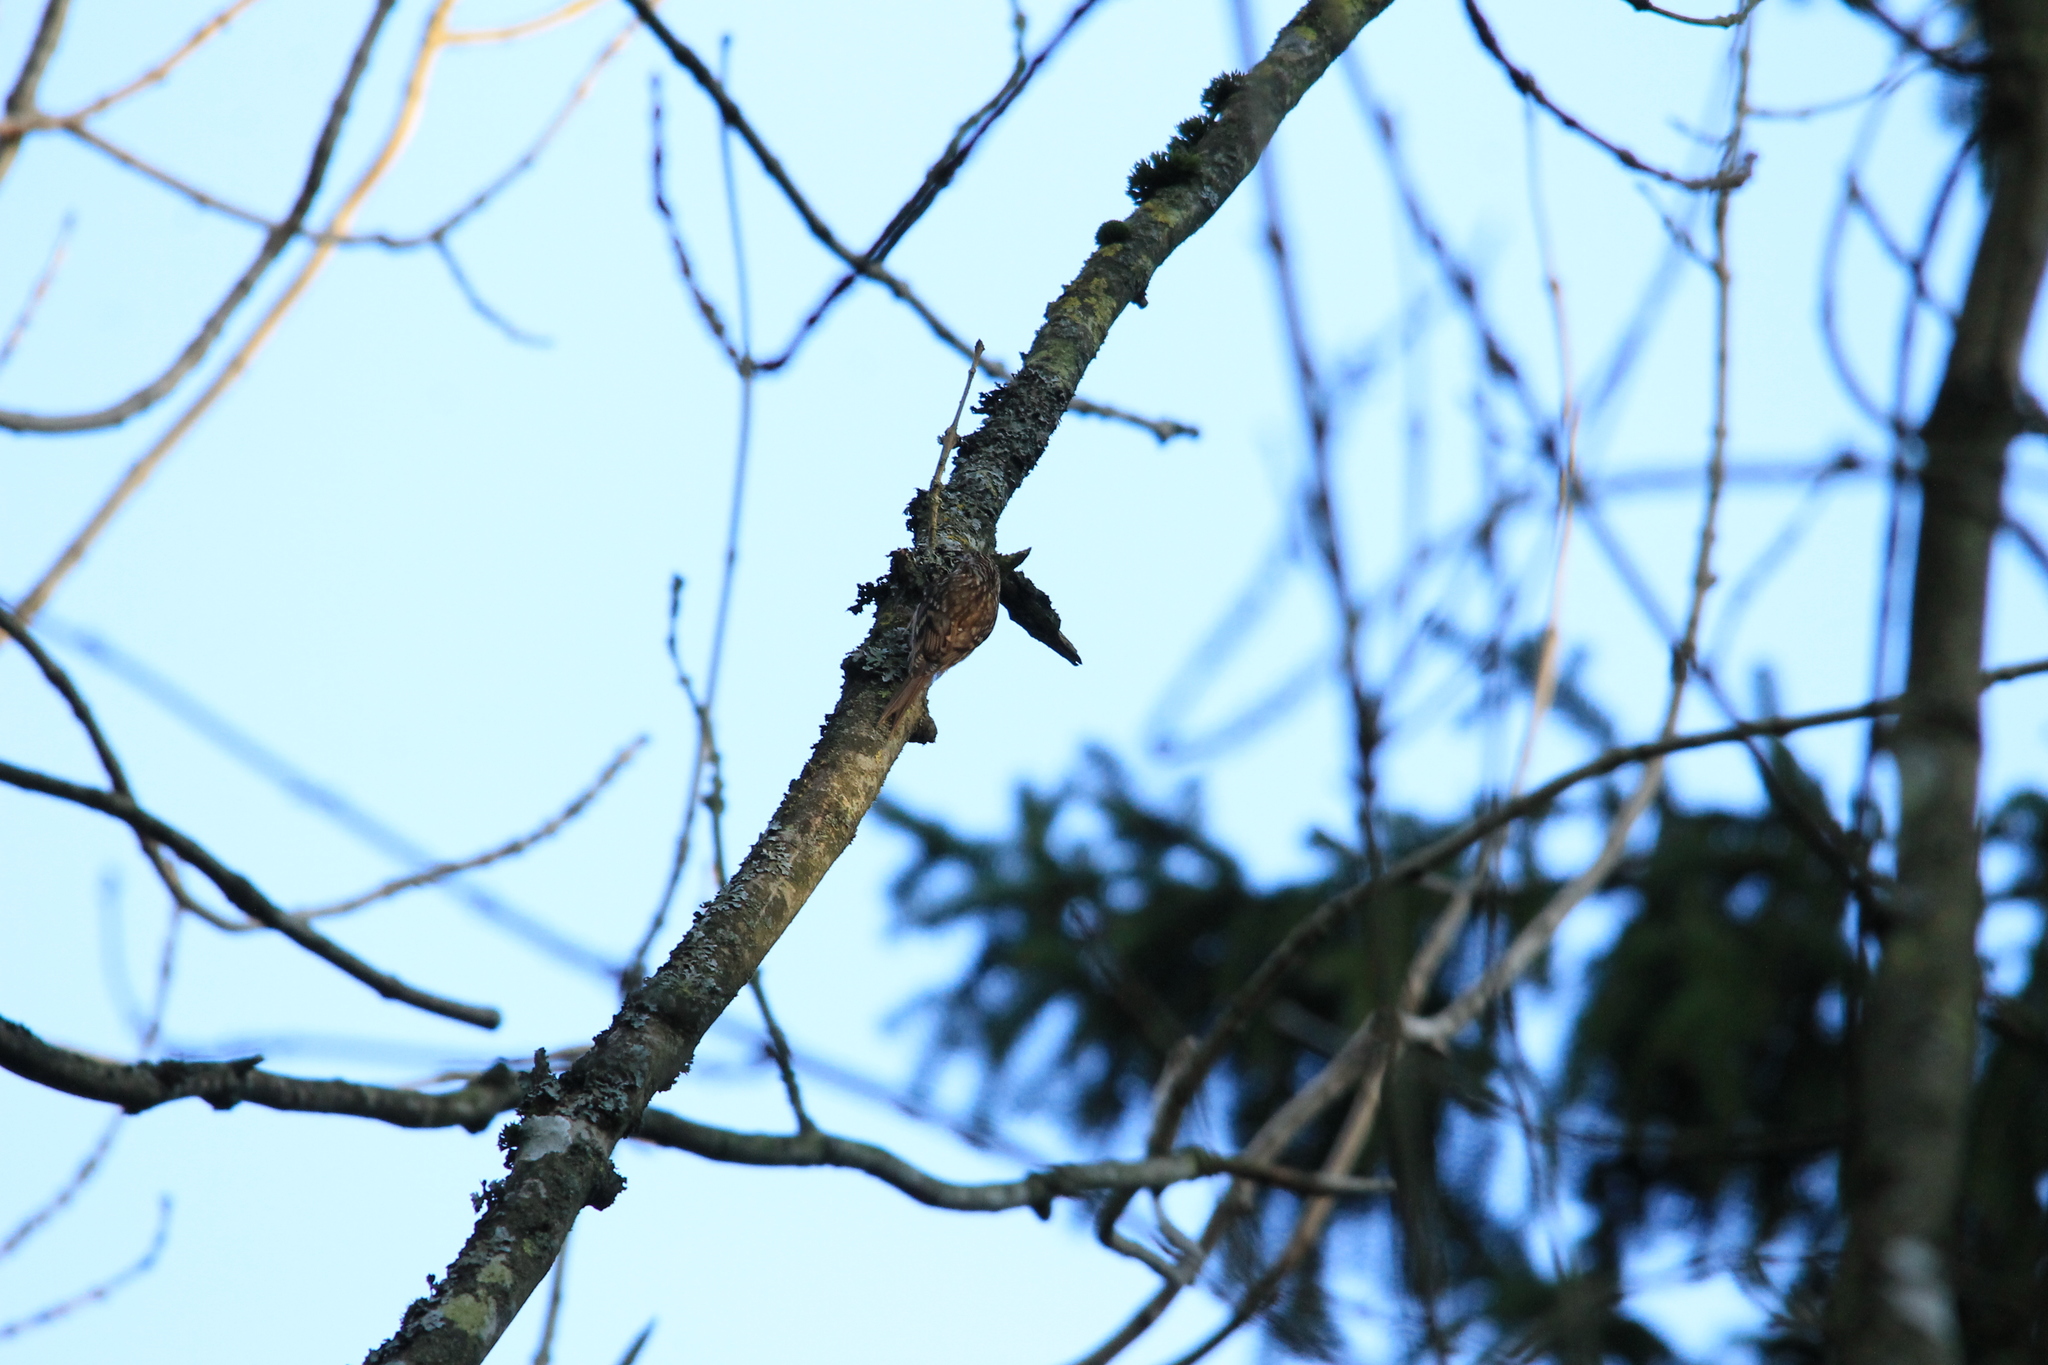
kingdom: Animalia
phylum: Chordata
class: Aves
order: Passeriformes
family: Certhiidae
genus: Certhia
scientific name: Certhia familiaris
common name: Eurasian treecreeper
